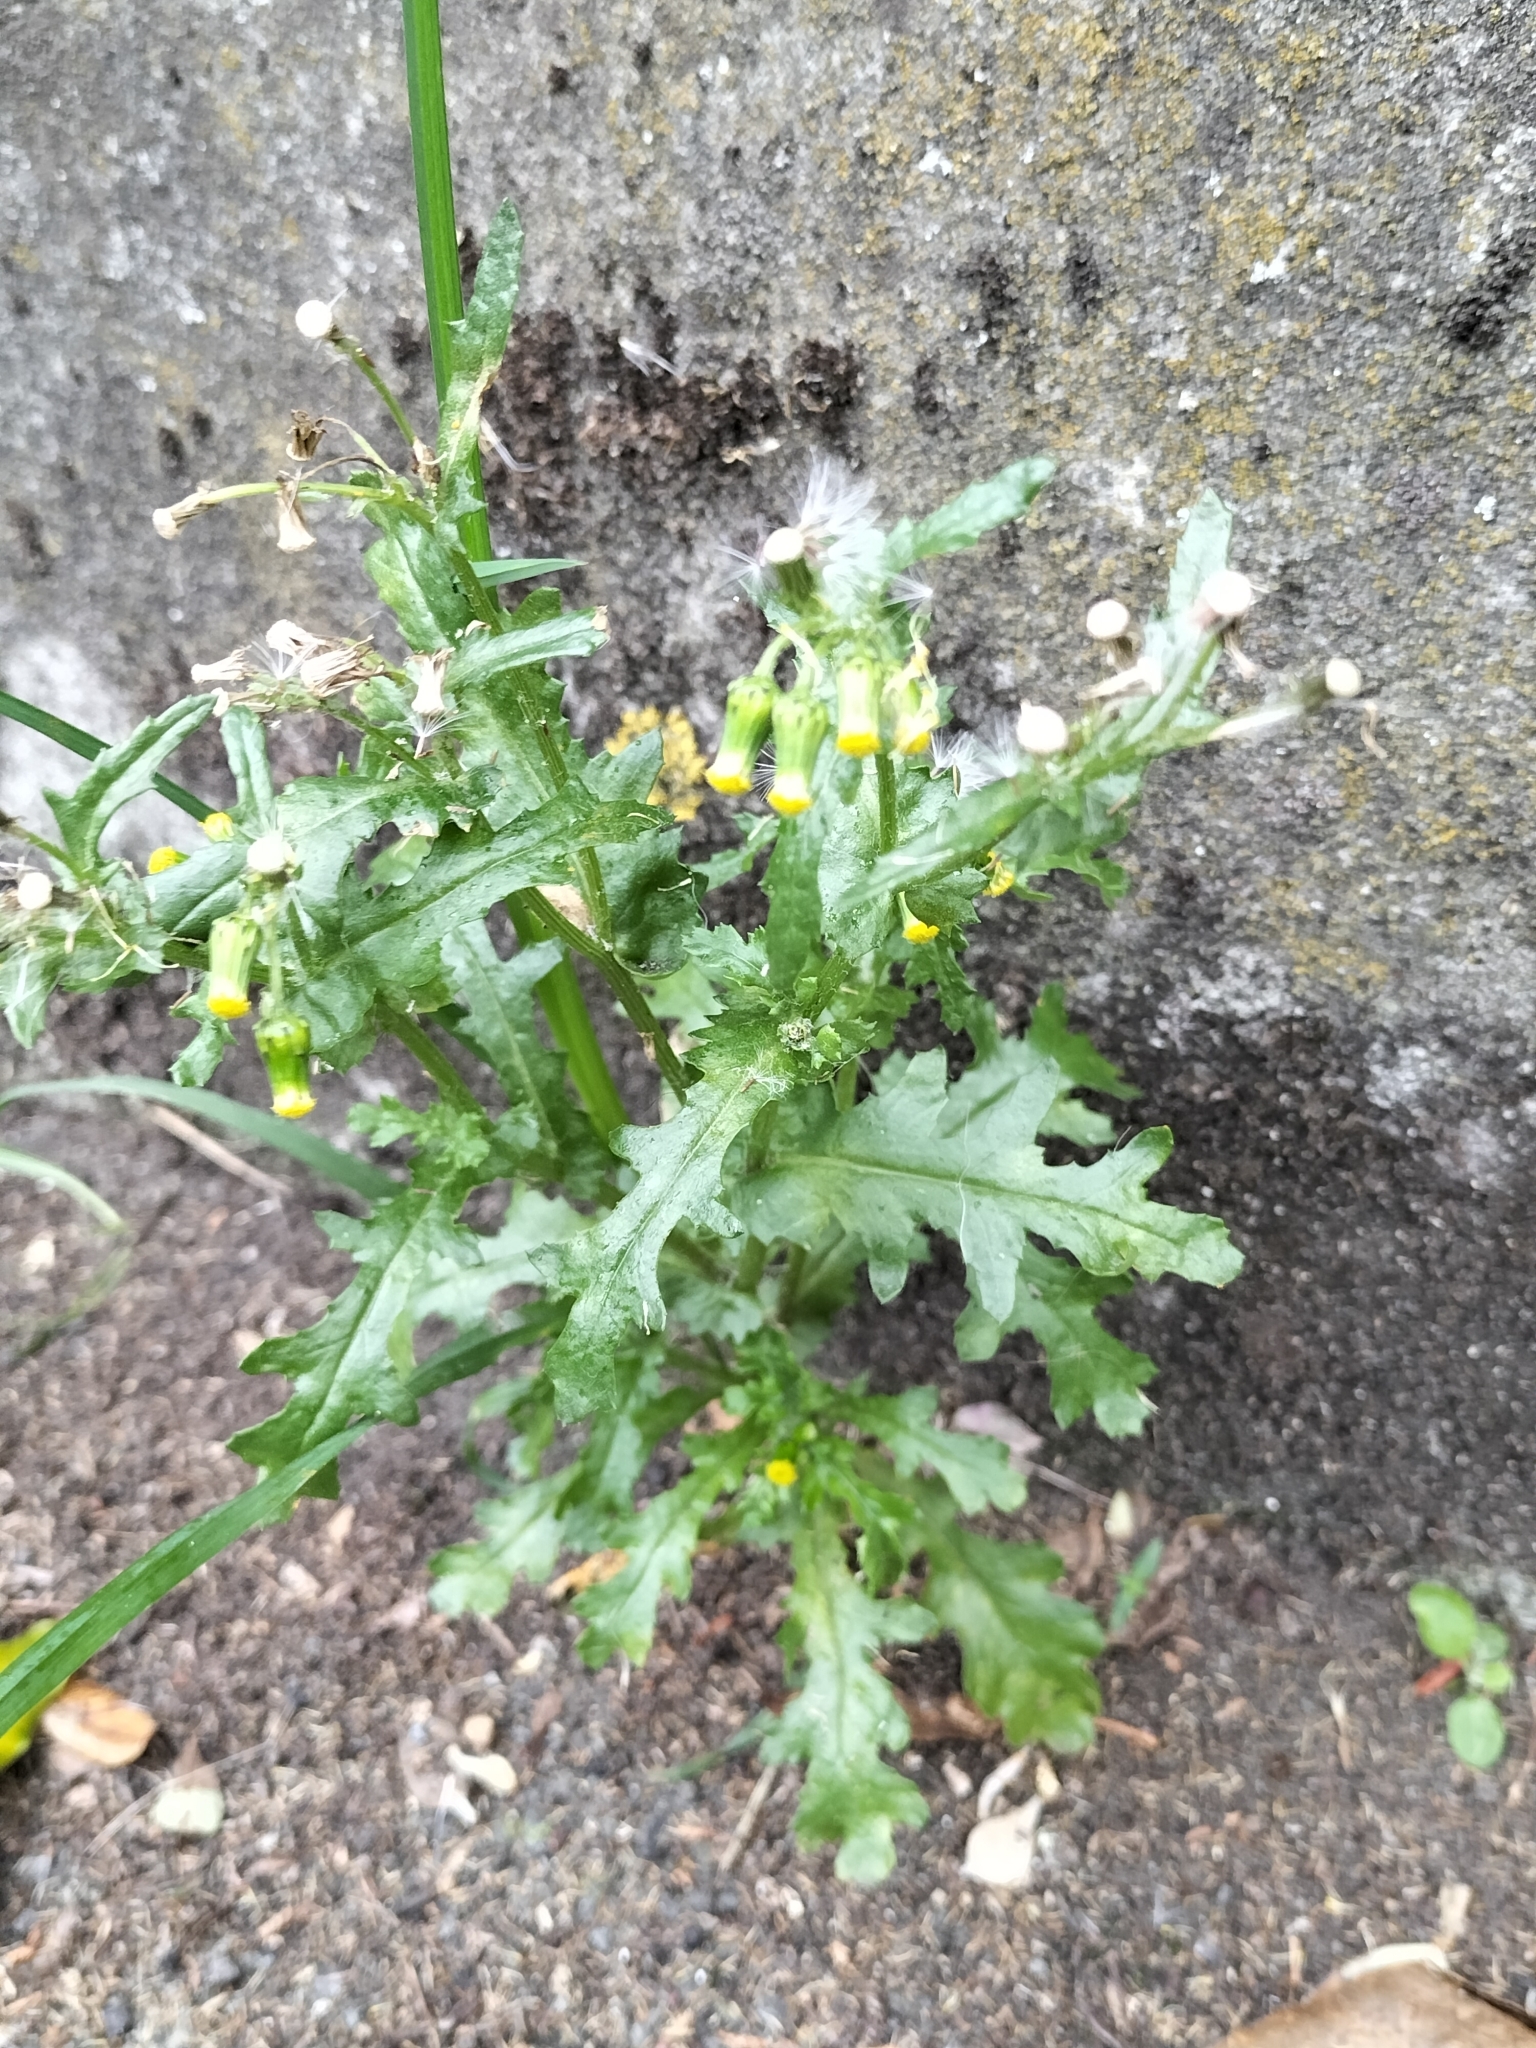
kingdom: Plantae
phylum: Tracheophyta
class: Magnoliopsida
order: Asterales
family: Asteraceae
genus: Senecio
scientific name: Senecio vulgaris
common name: Old-man-in-the-spring
